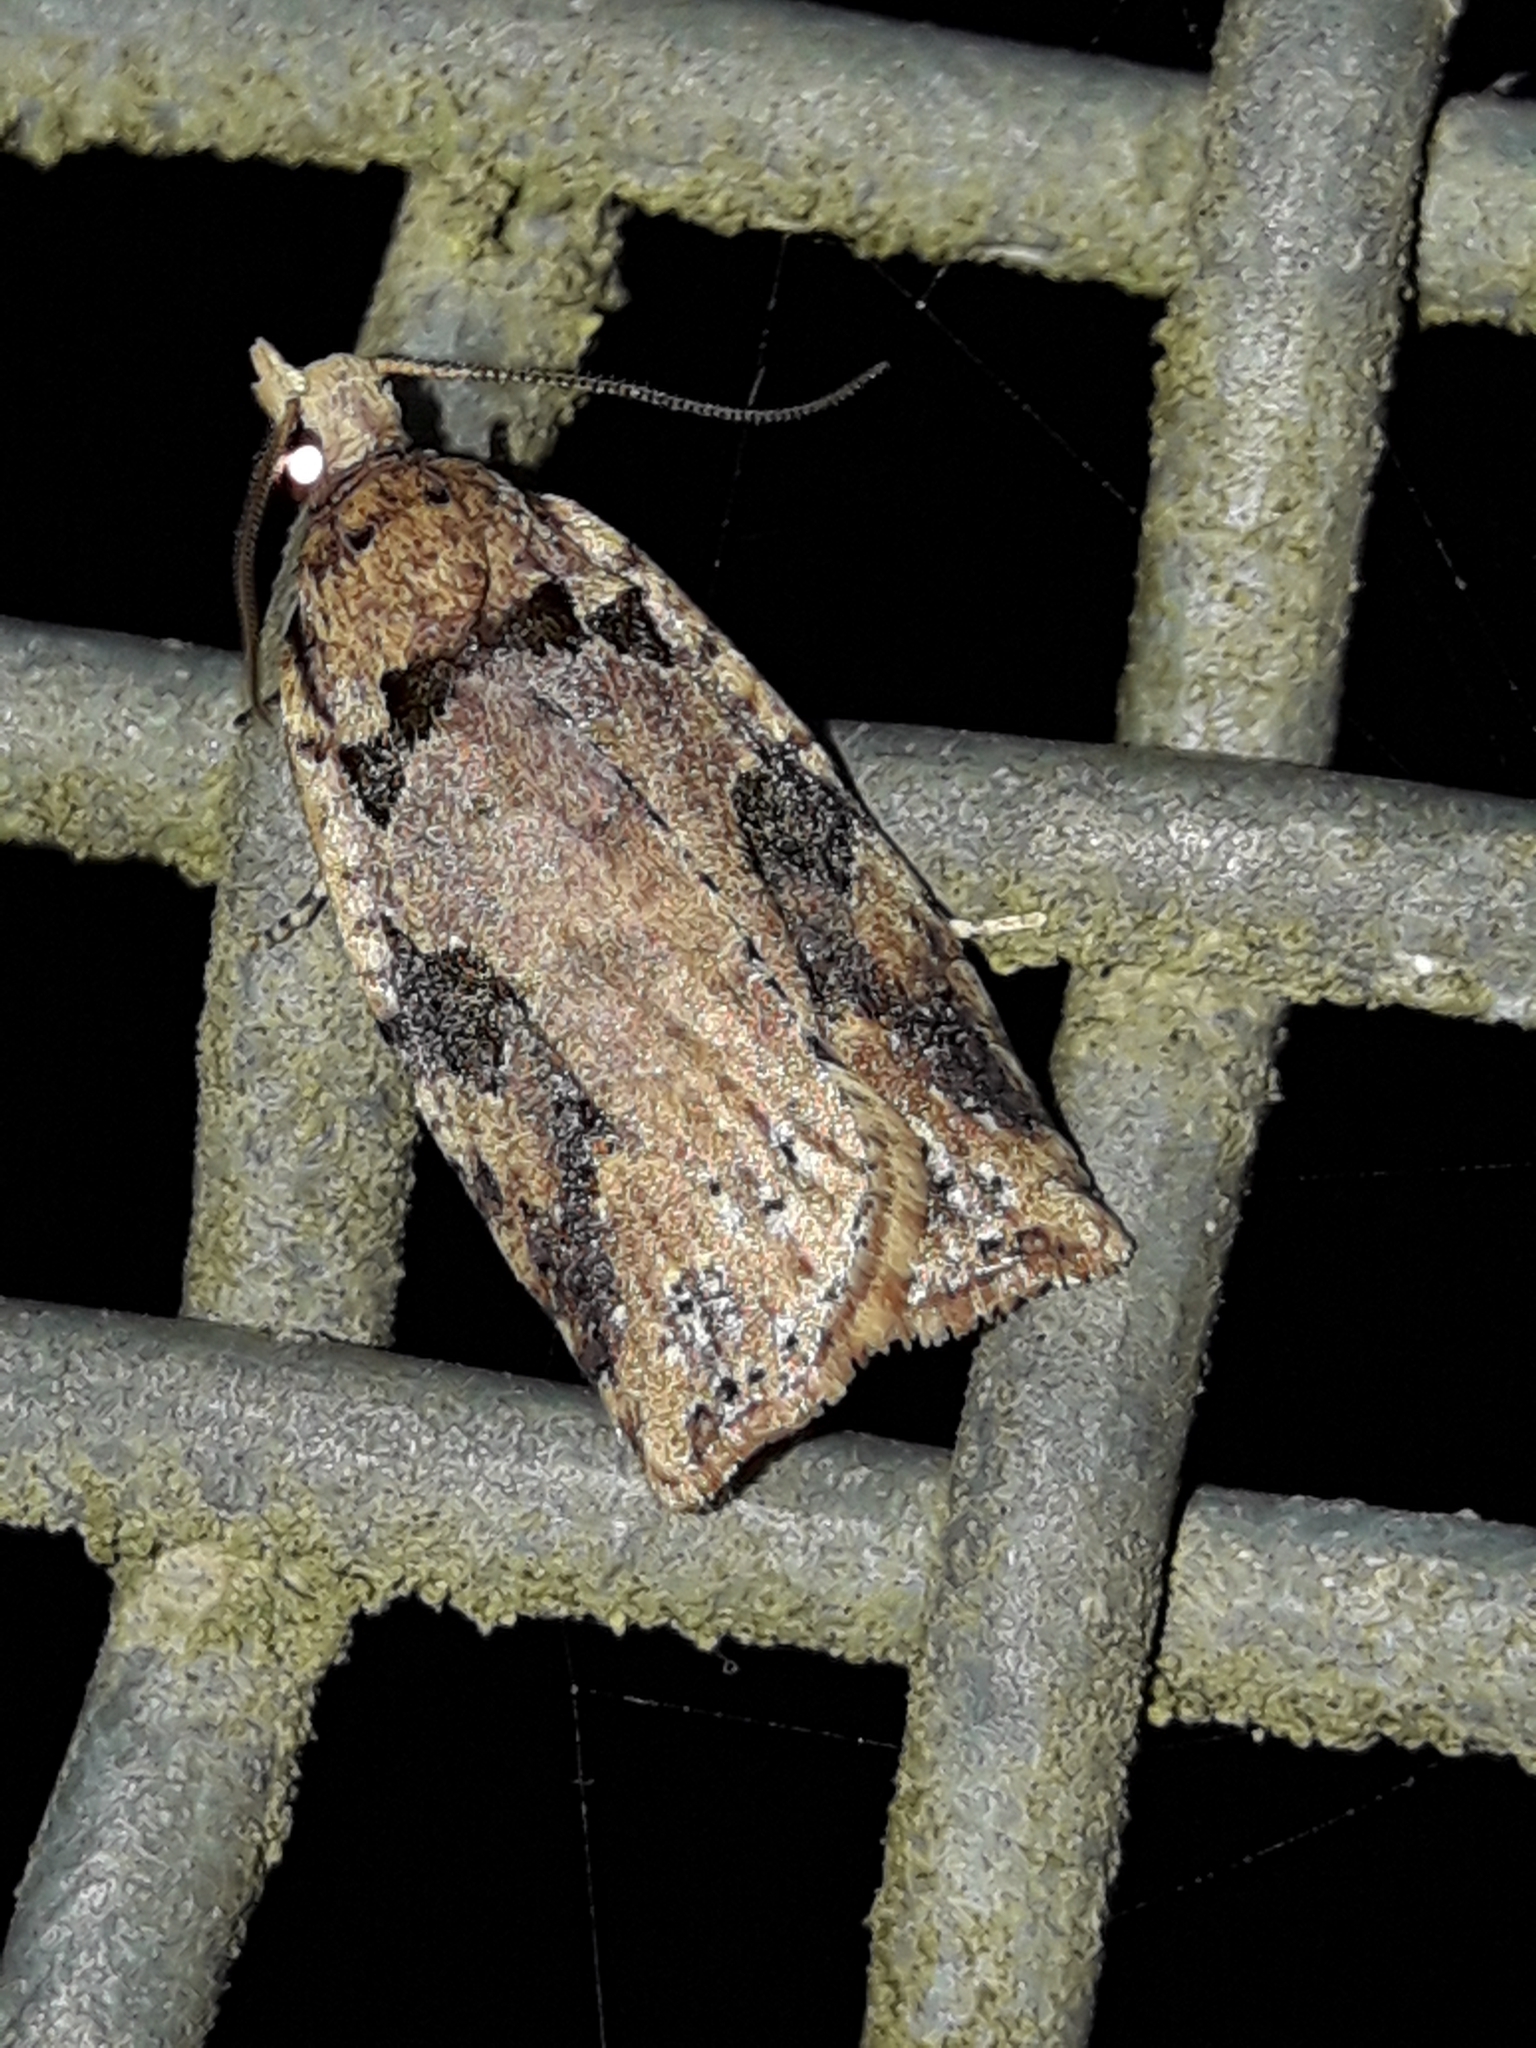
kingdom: Animalia
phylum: Arthropoda
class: Insecta
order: Lepidoptera
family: Tortricidae
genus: Ctenopseustis
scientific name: Ctenopseustis obliquana
